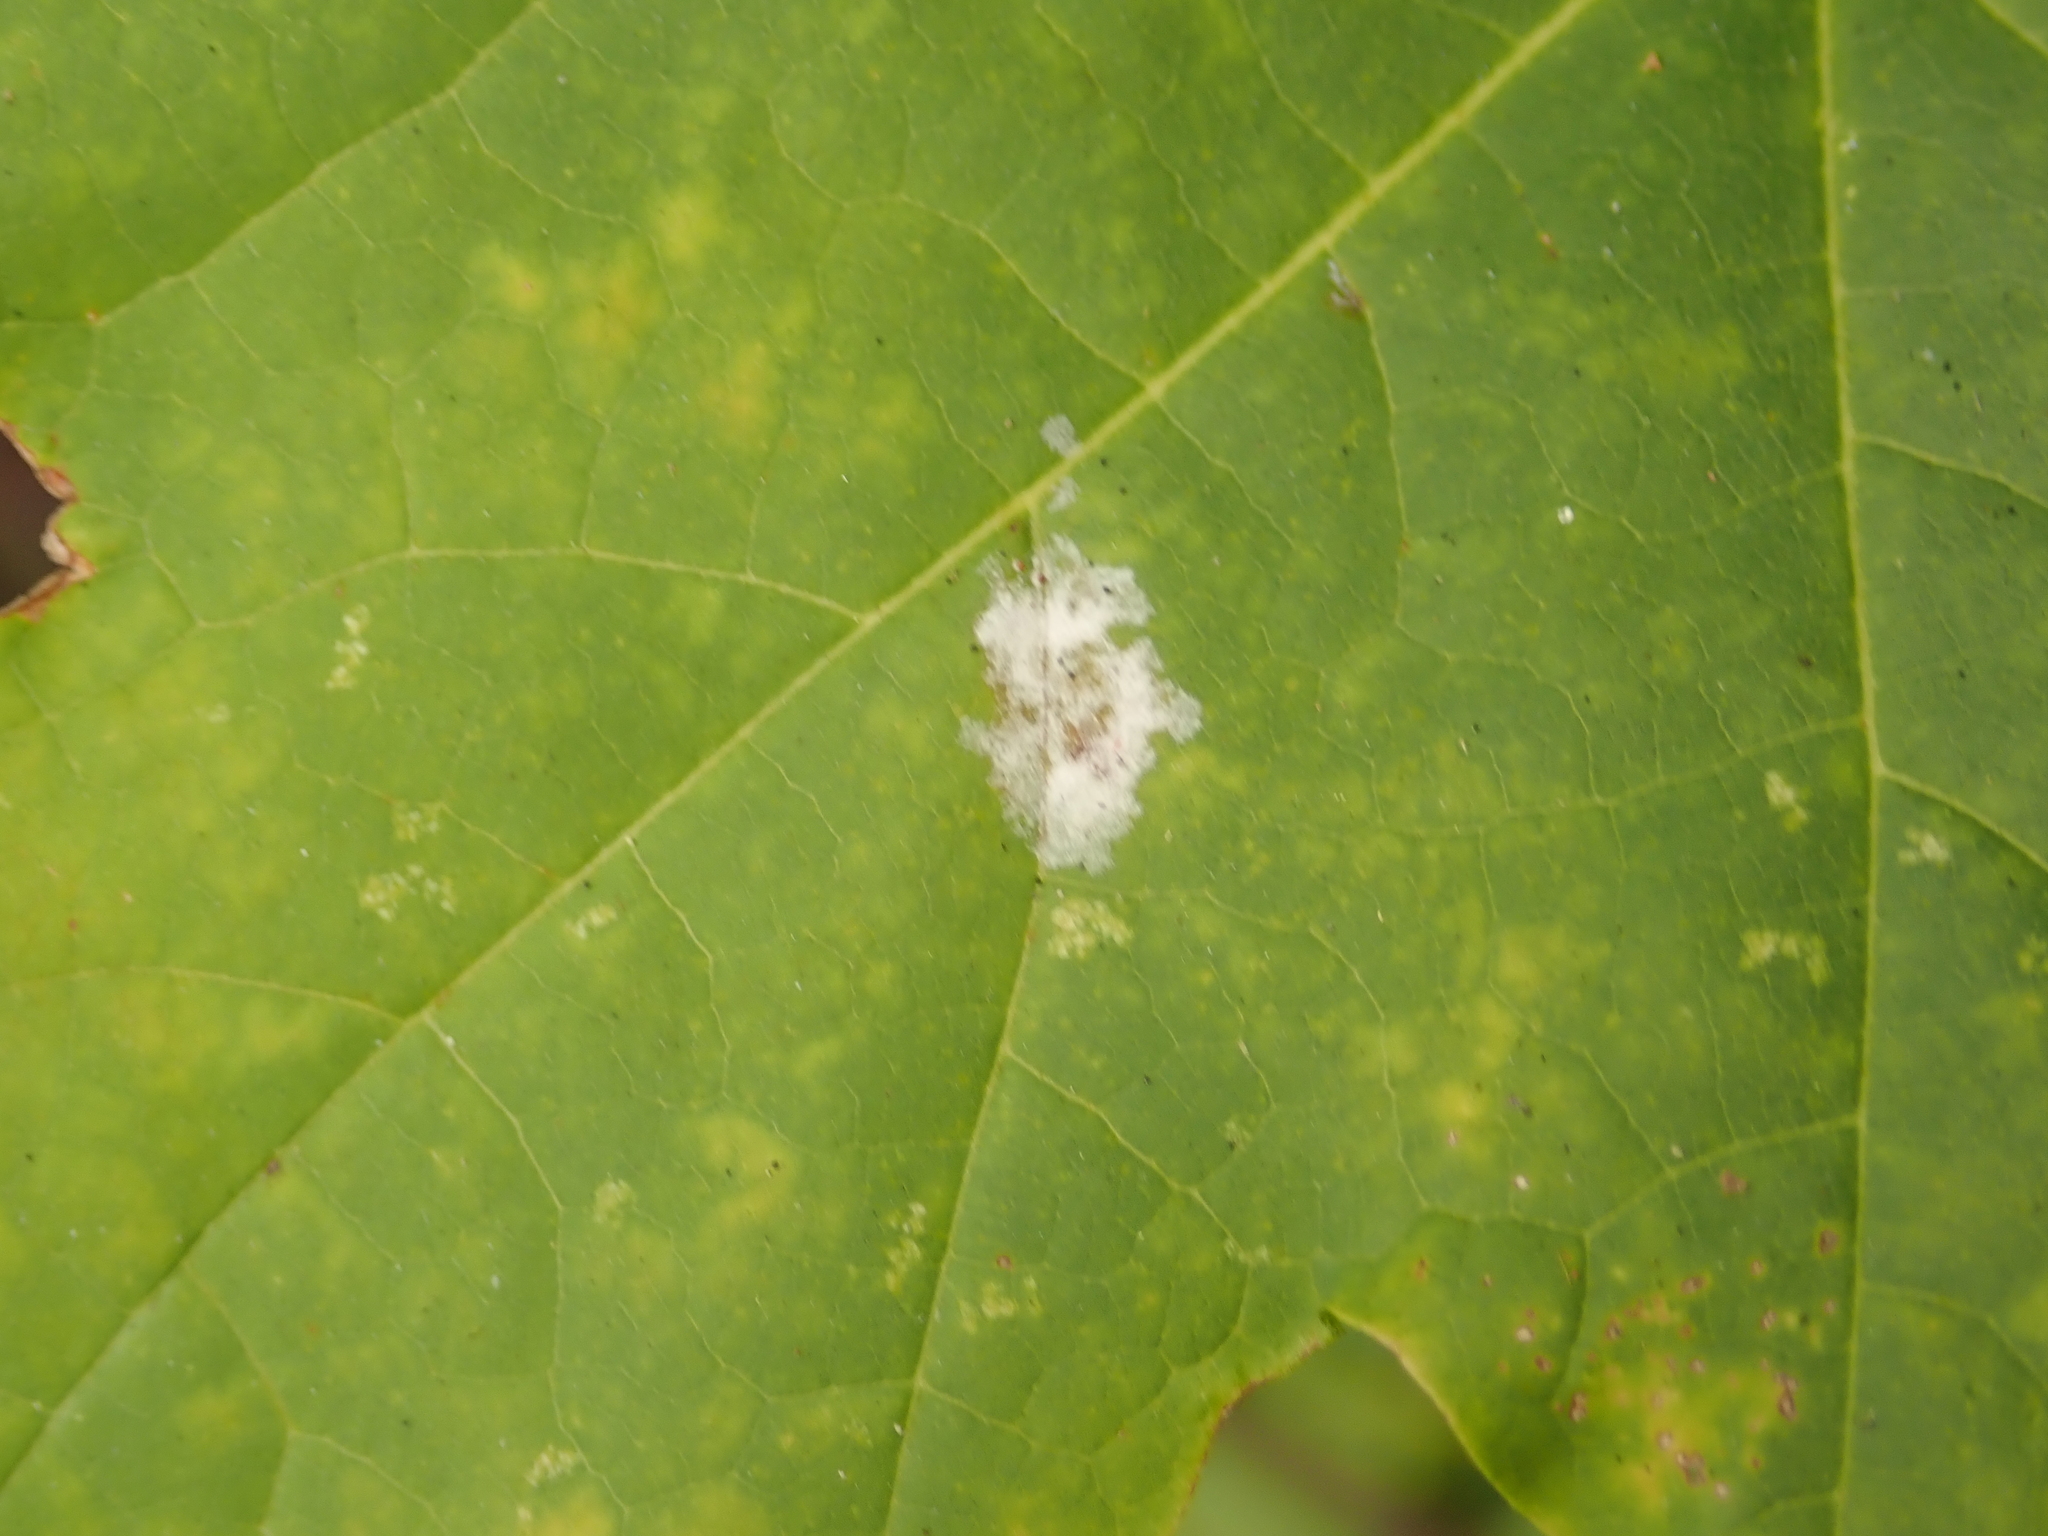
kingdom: Fungi
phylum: Ascomycota
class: Leotiomycetes
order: Helotiales
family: Erysiphaceae
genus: Sawadaea
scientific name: Sawadaea tulasnei
